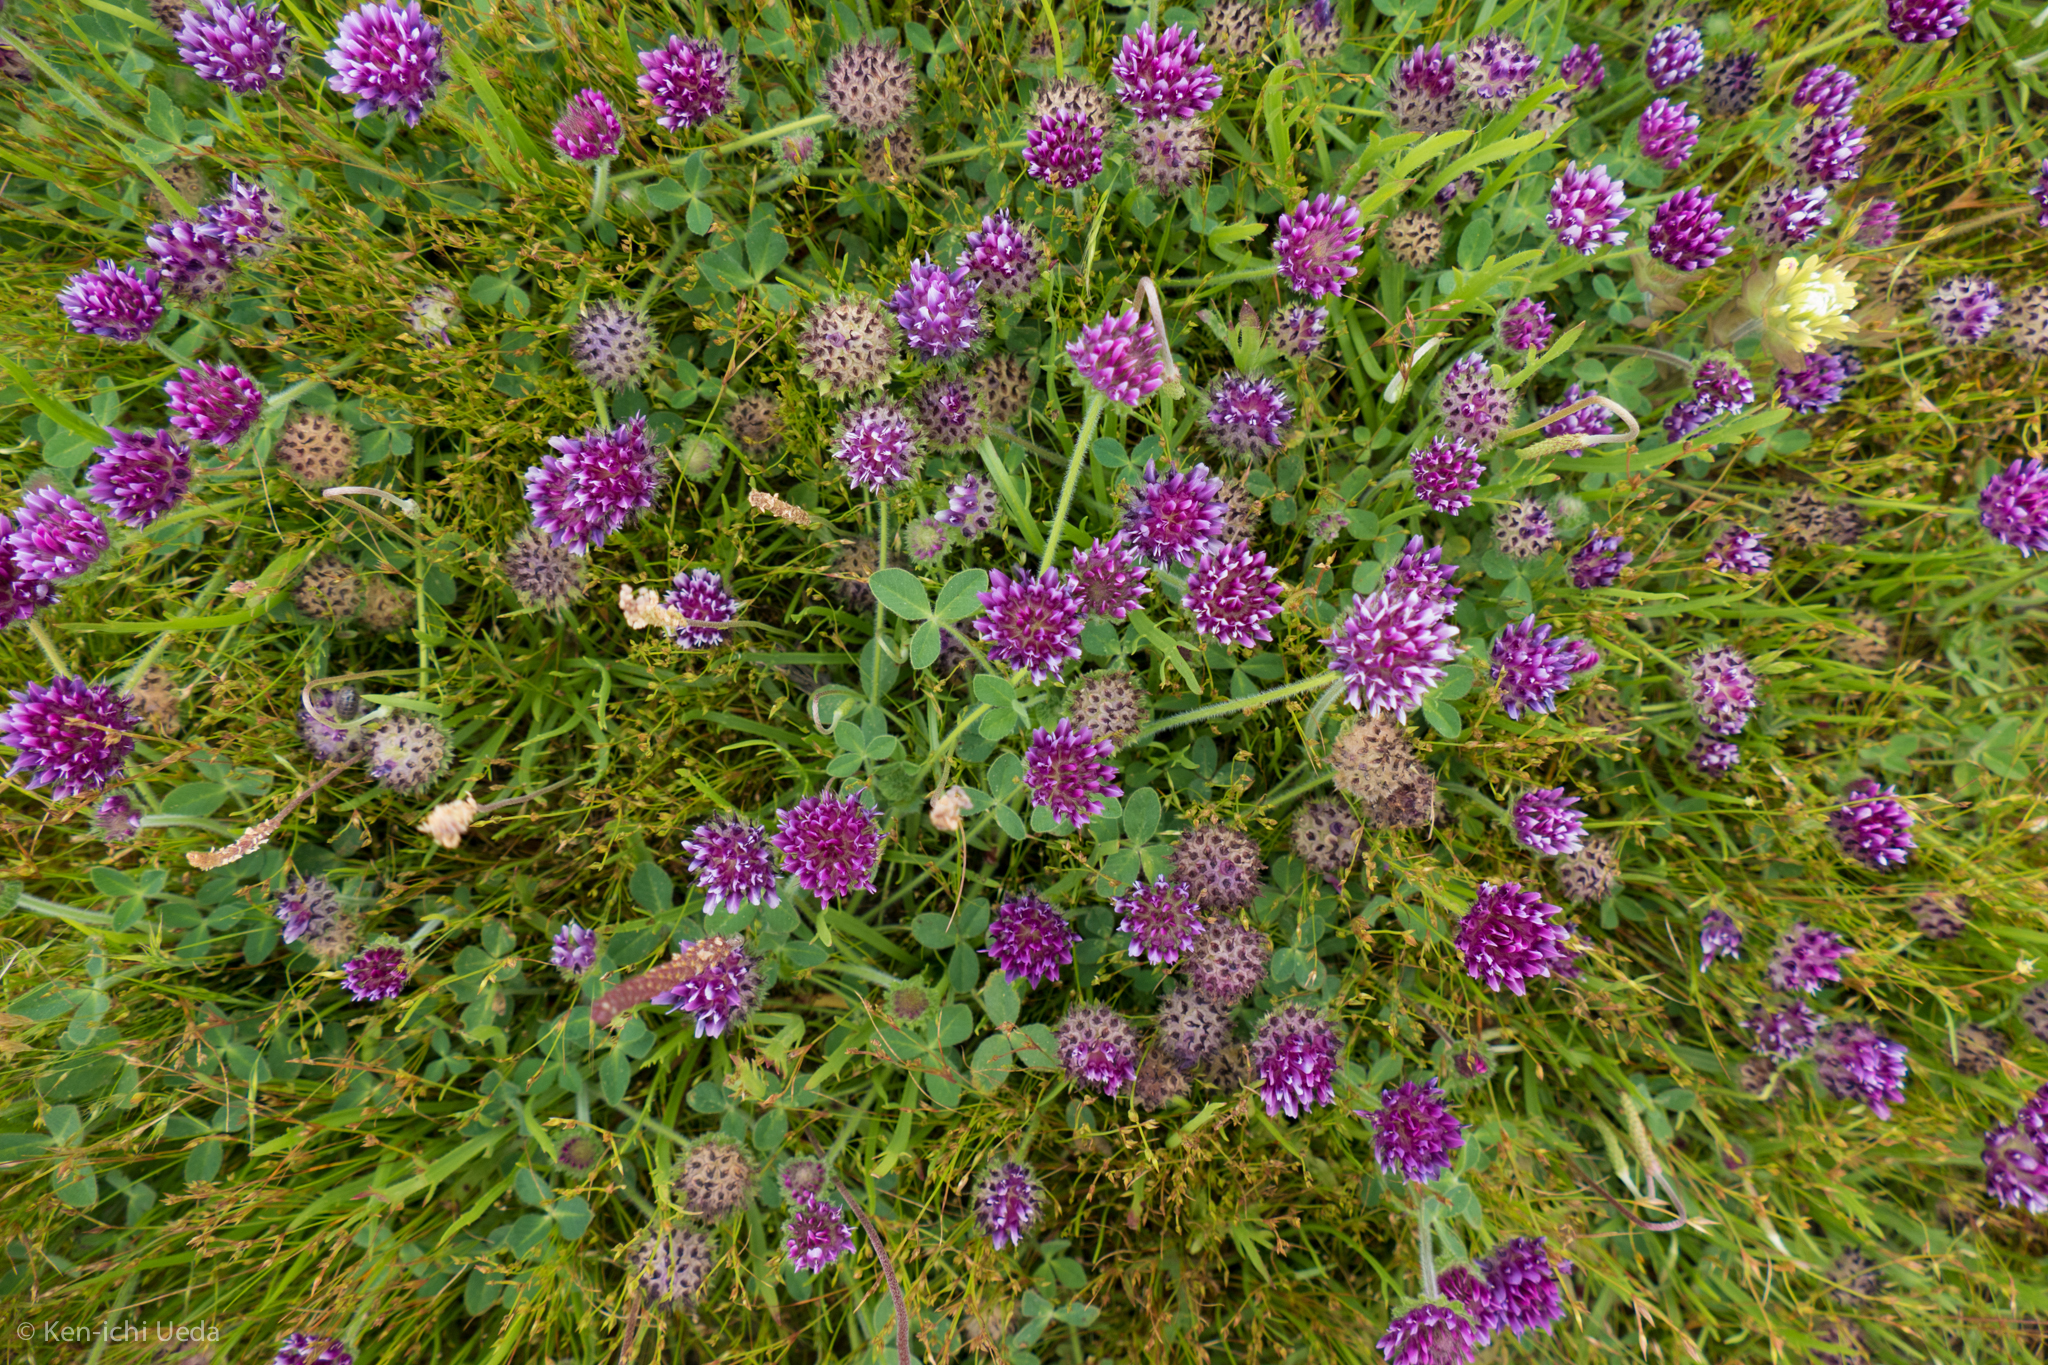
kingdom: Plantae
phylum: Tracheophyta
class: Magnoliopsida
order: Fabales
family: Fabaceae
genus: Trifolium
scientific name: Trifolium barbigerum
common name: Bearded clover
